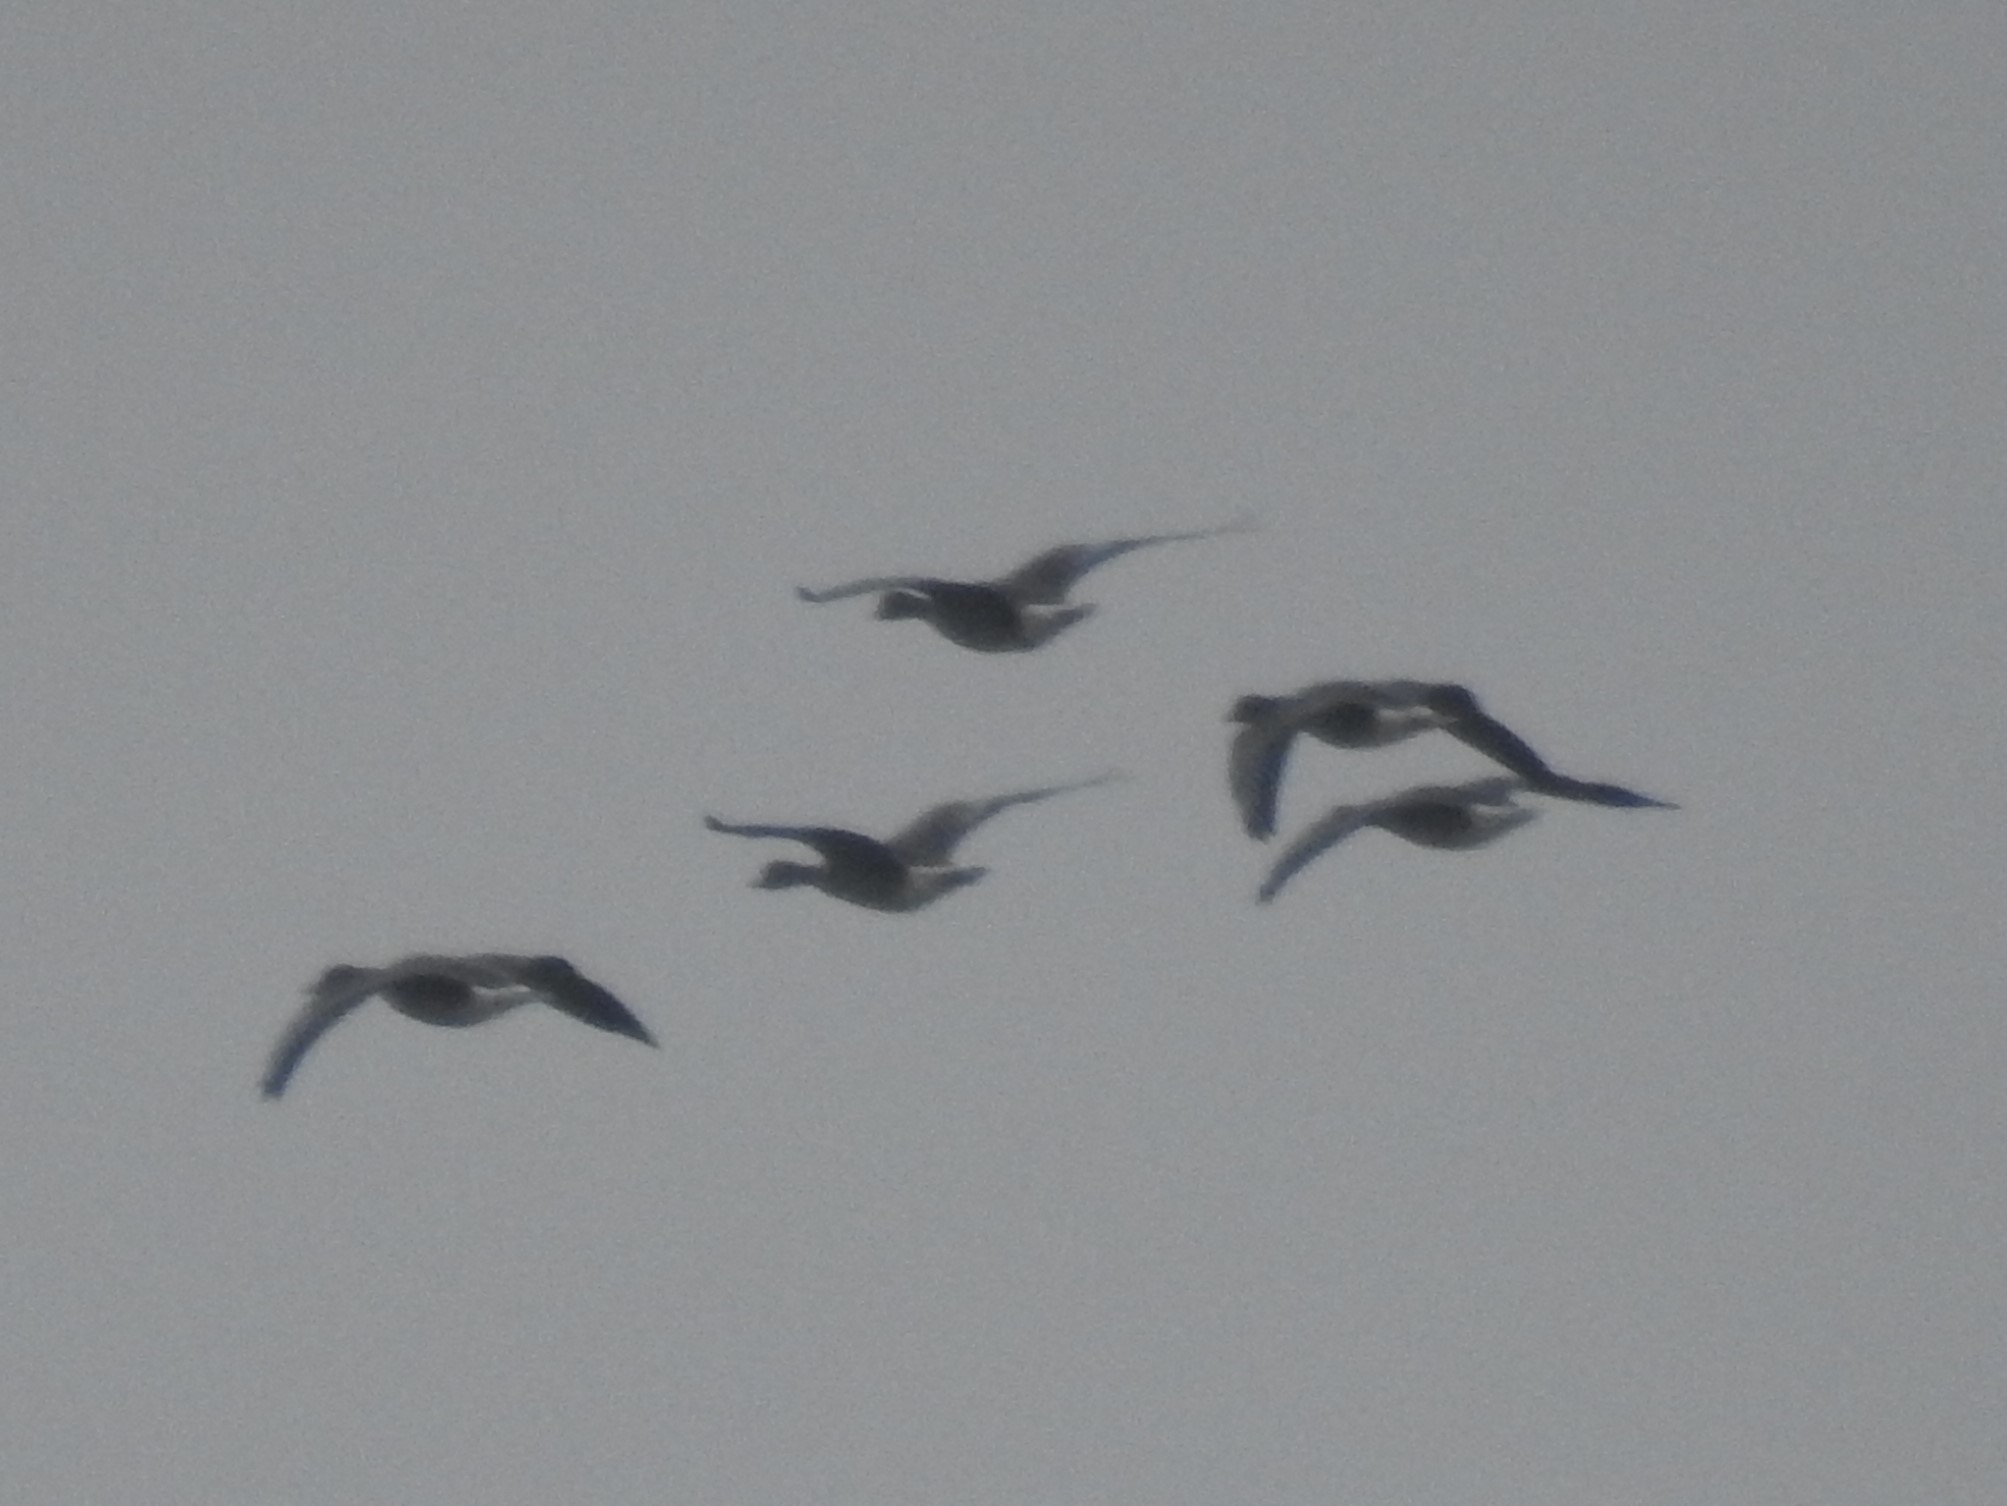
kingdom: Animalia
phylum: Chordata
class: Aves
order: Anseriformes
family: Anatidae
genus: Anser
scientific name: Anser albifrons
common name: Greater white-fronted goose
